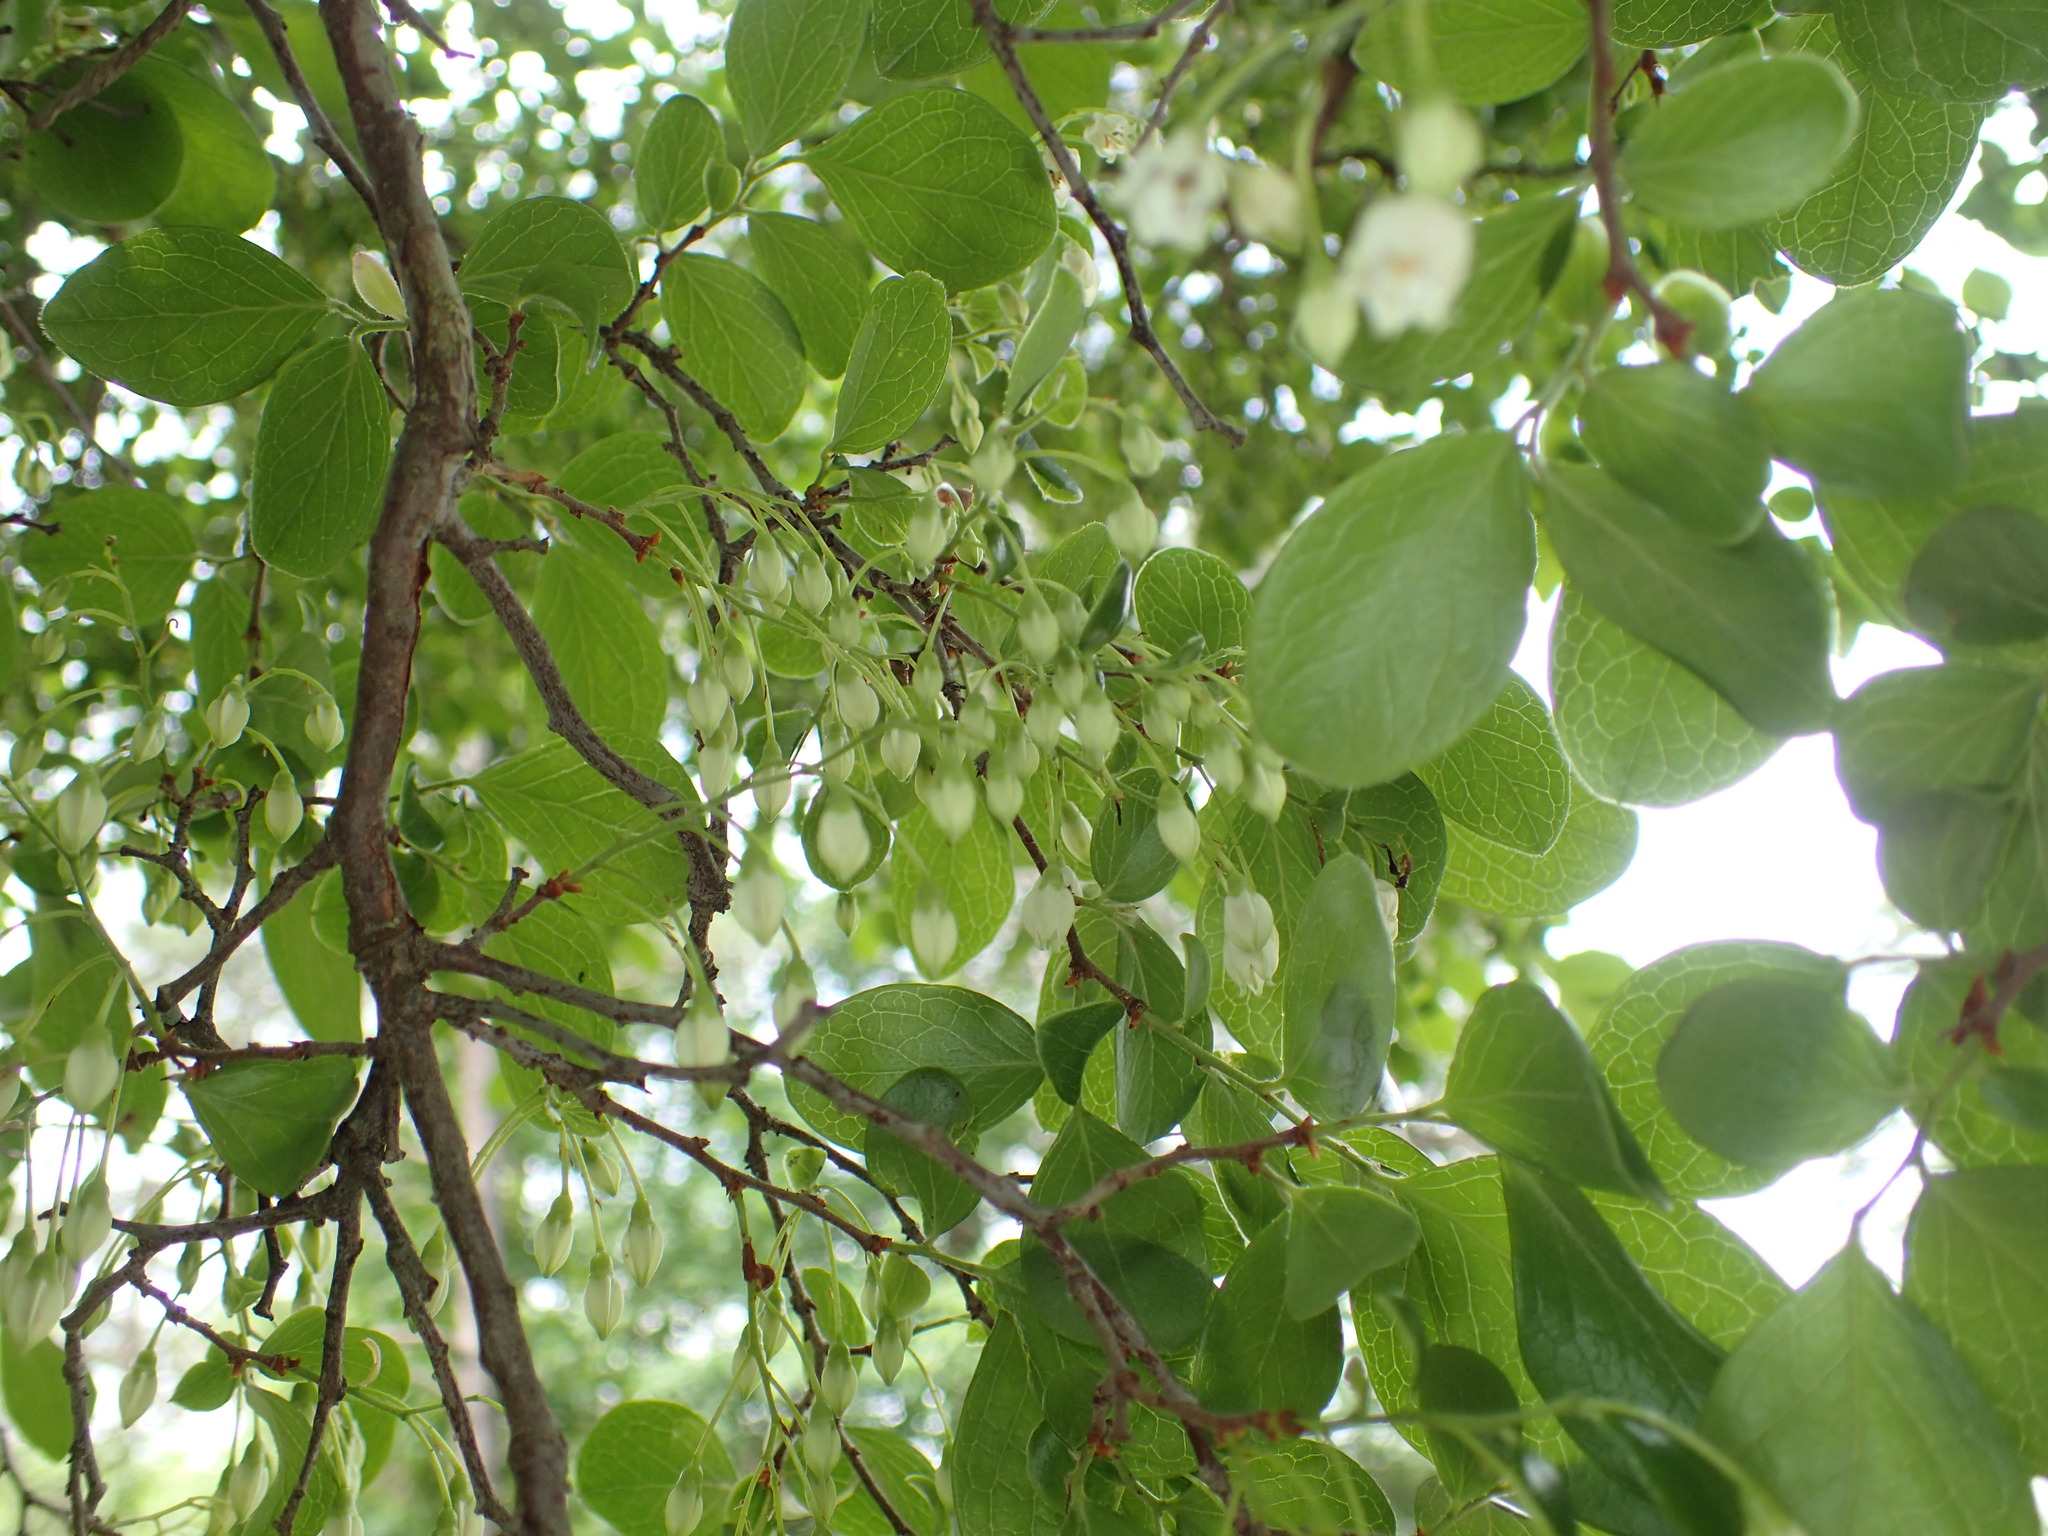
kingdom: Plantae
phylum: Tracheophyta
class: Magnoliopsida
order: Ericales
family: Ericaceae
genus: Vaccinium
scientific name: Vaccinium arboreum
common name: Farkleberry
